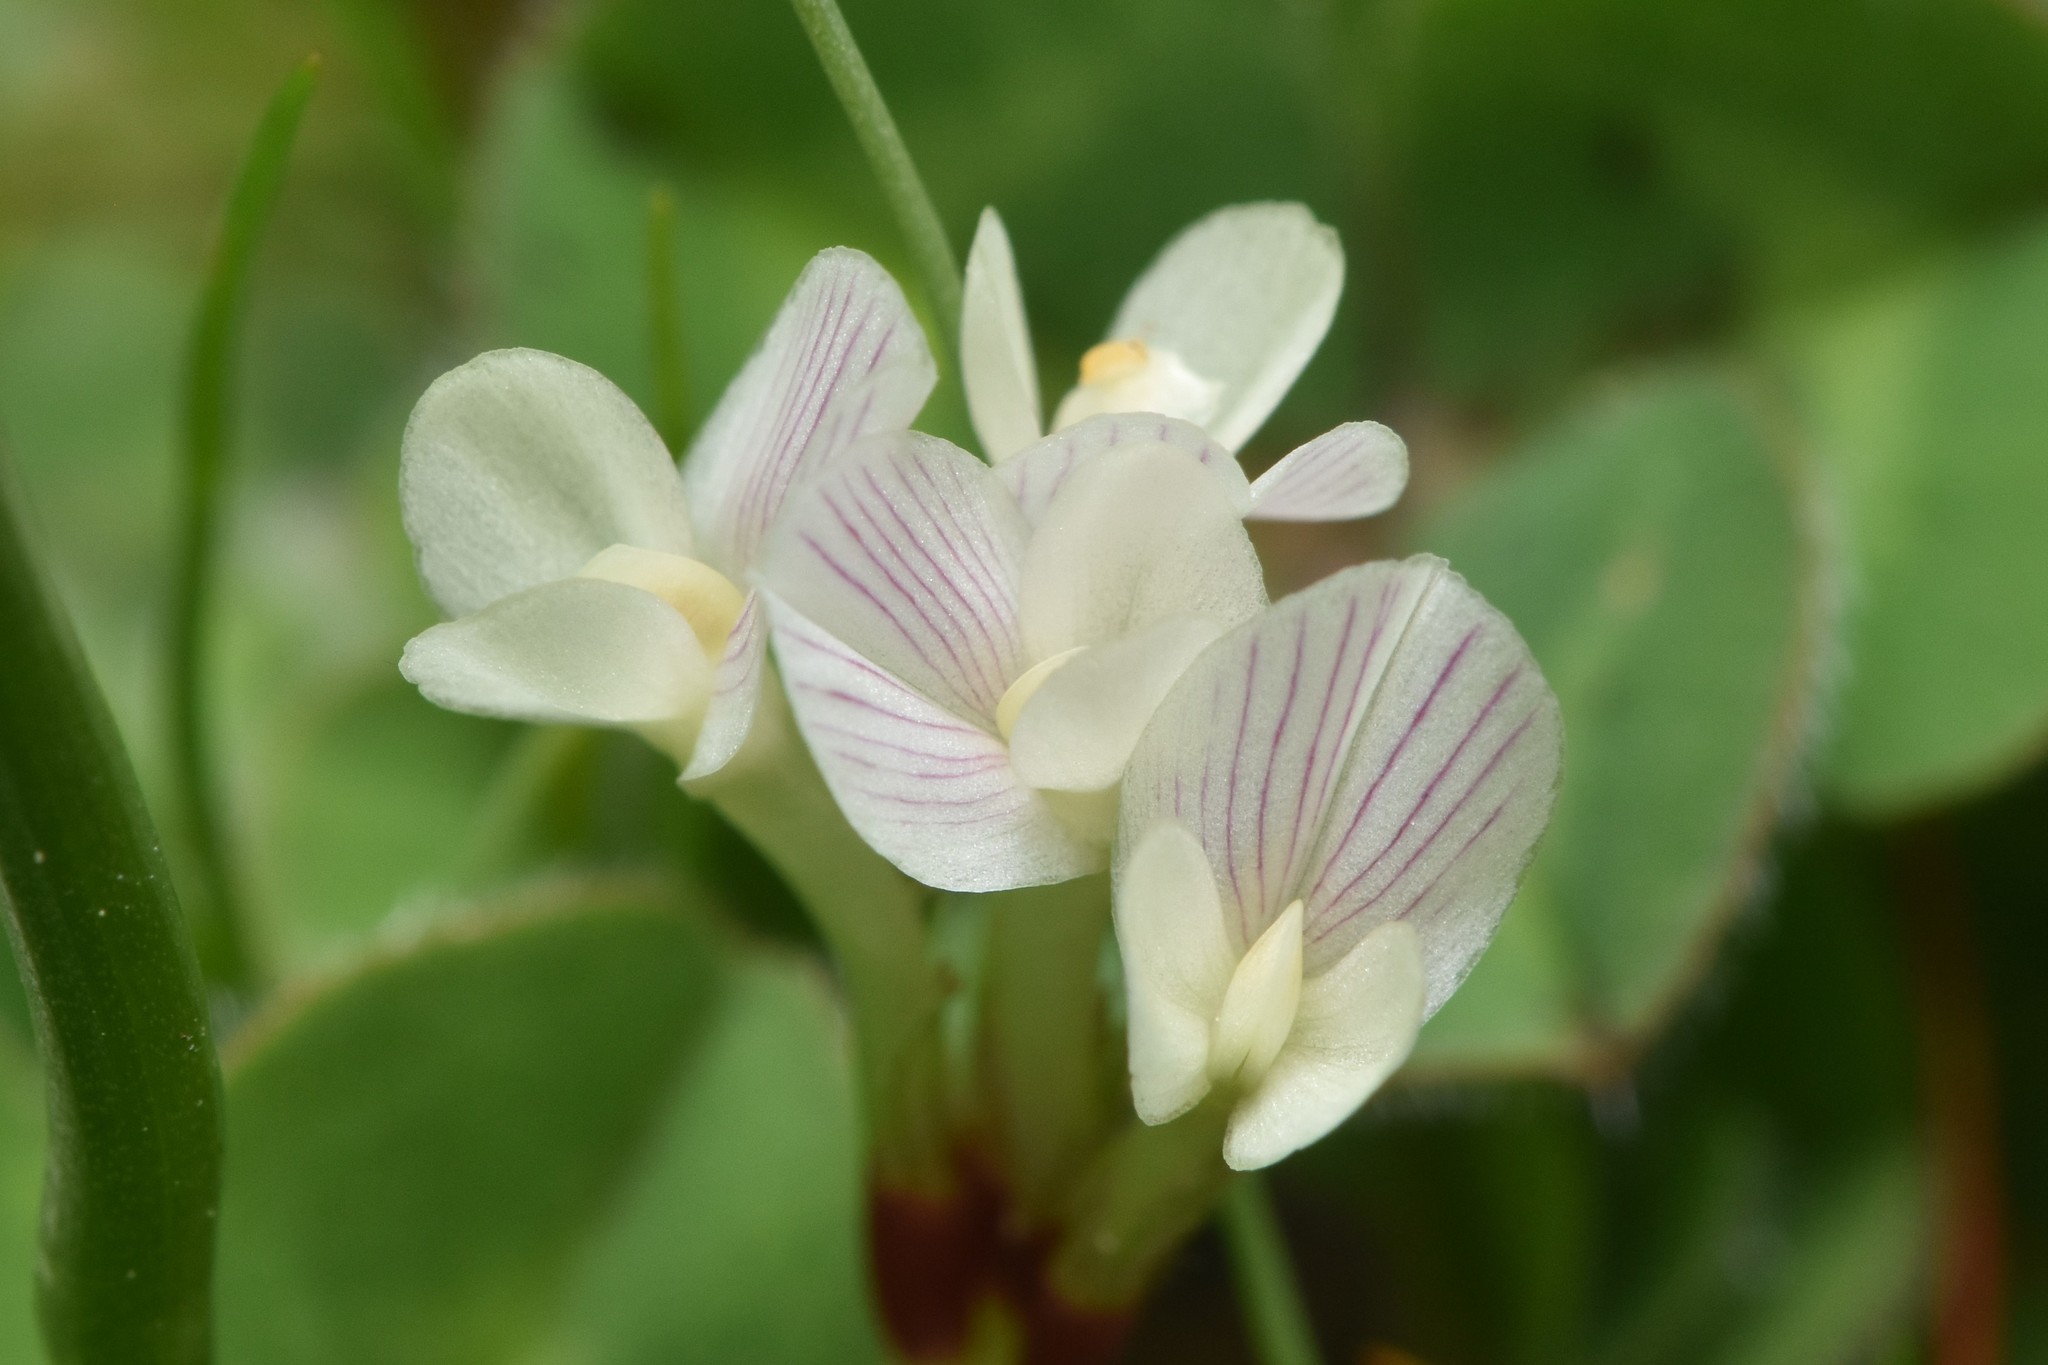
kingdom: Plantae
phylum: Tracheophyta
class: Magnoliopsida
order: Fabales
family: Fabaceae
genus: Trifolium
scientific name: Trifolium subterraneum
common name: Subterranean clover
